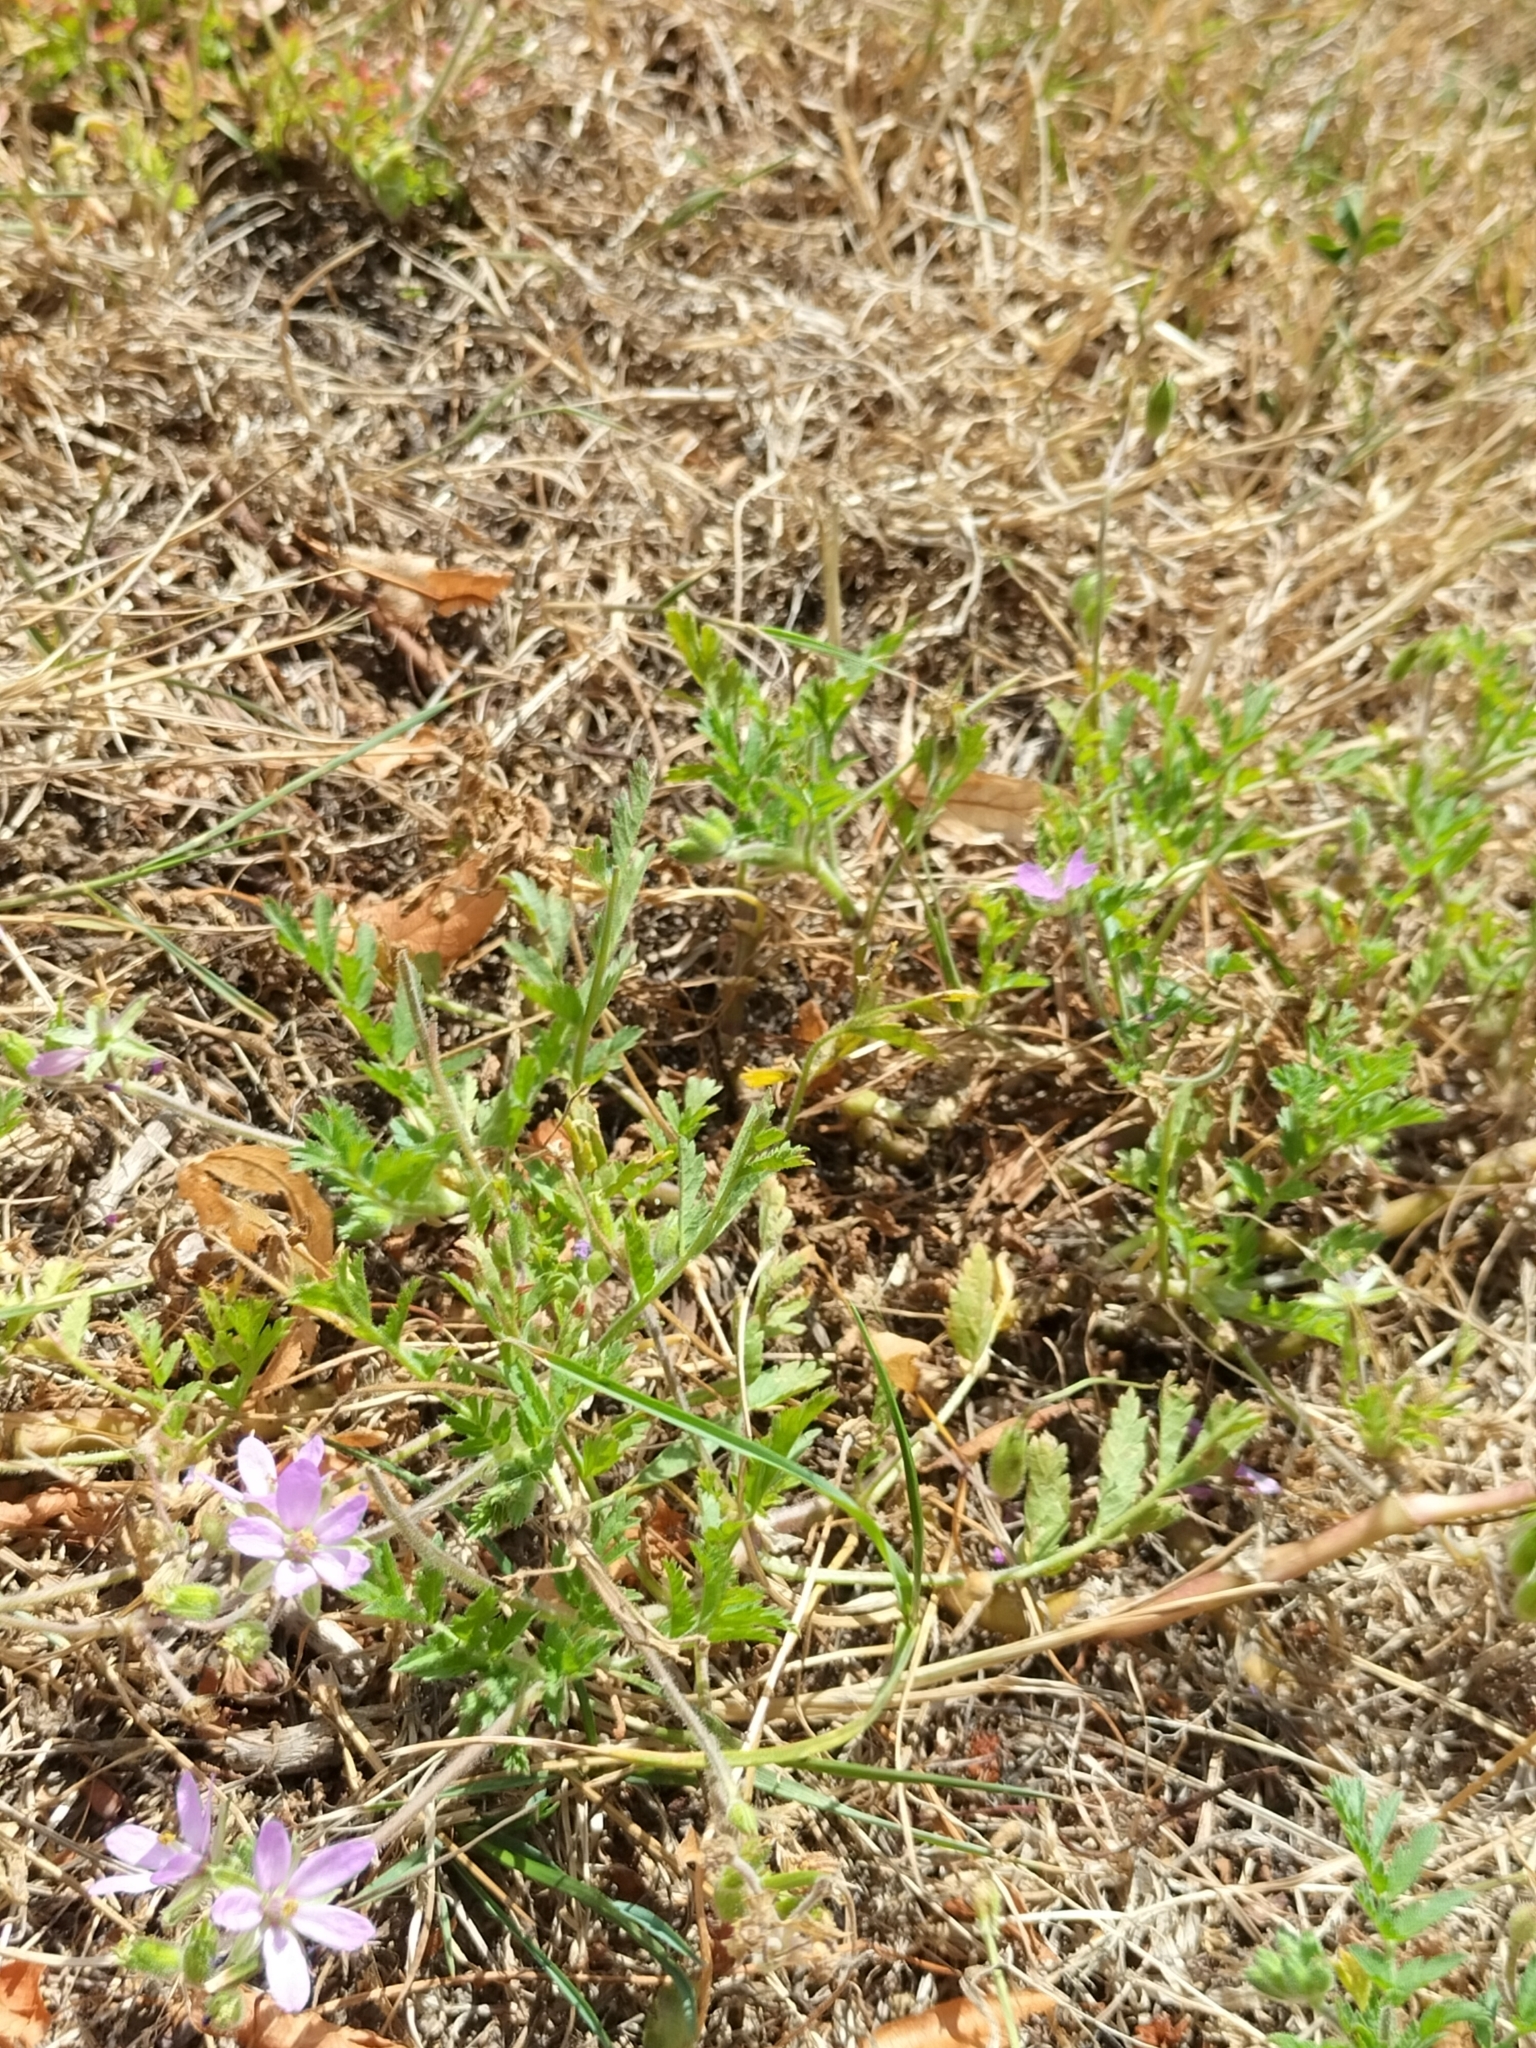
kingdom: Plantae
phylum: Tracheophyta
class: Magnoliopsida
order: Geraniales
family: Geraniaceae
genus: Erodium
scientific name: Erodium cicutarium
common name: Common stork's-bill
